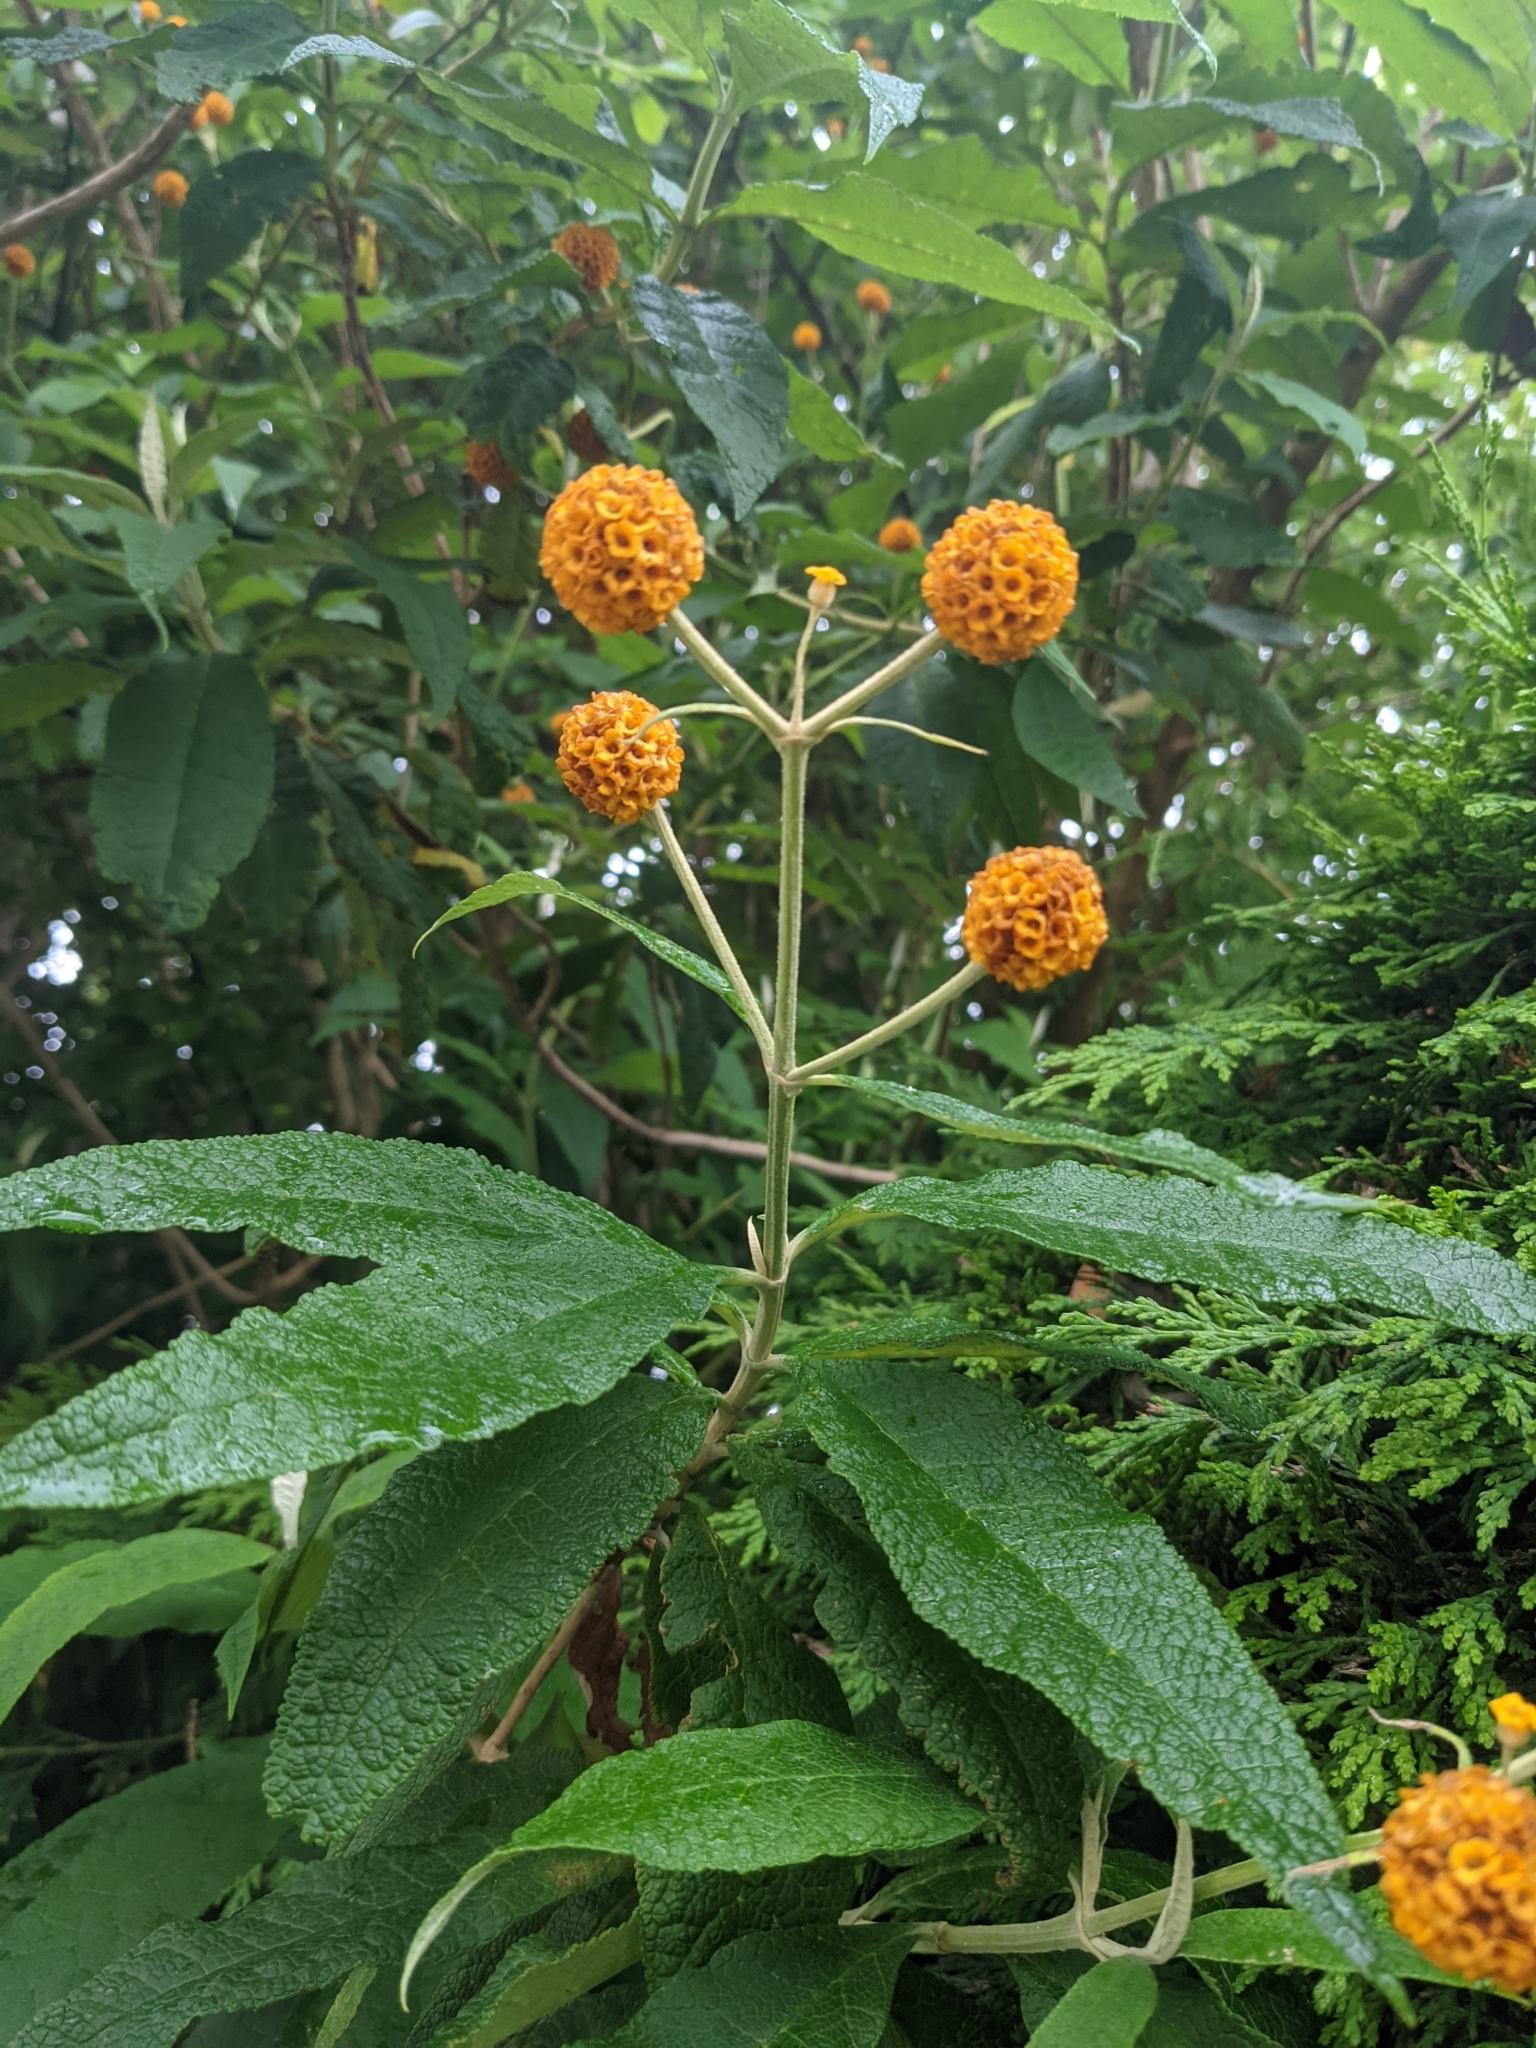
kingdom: Plantae
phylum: Tracheophyta
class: Magnoliopsida
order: Lamiales
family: Scrophulariaceae
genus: Buddleja
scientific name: Buddleja globosa
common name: Orange-ball-tree
